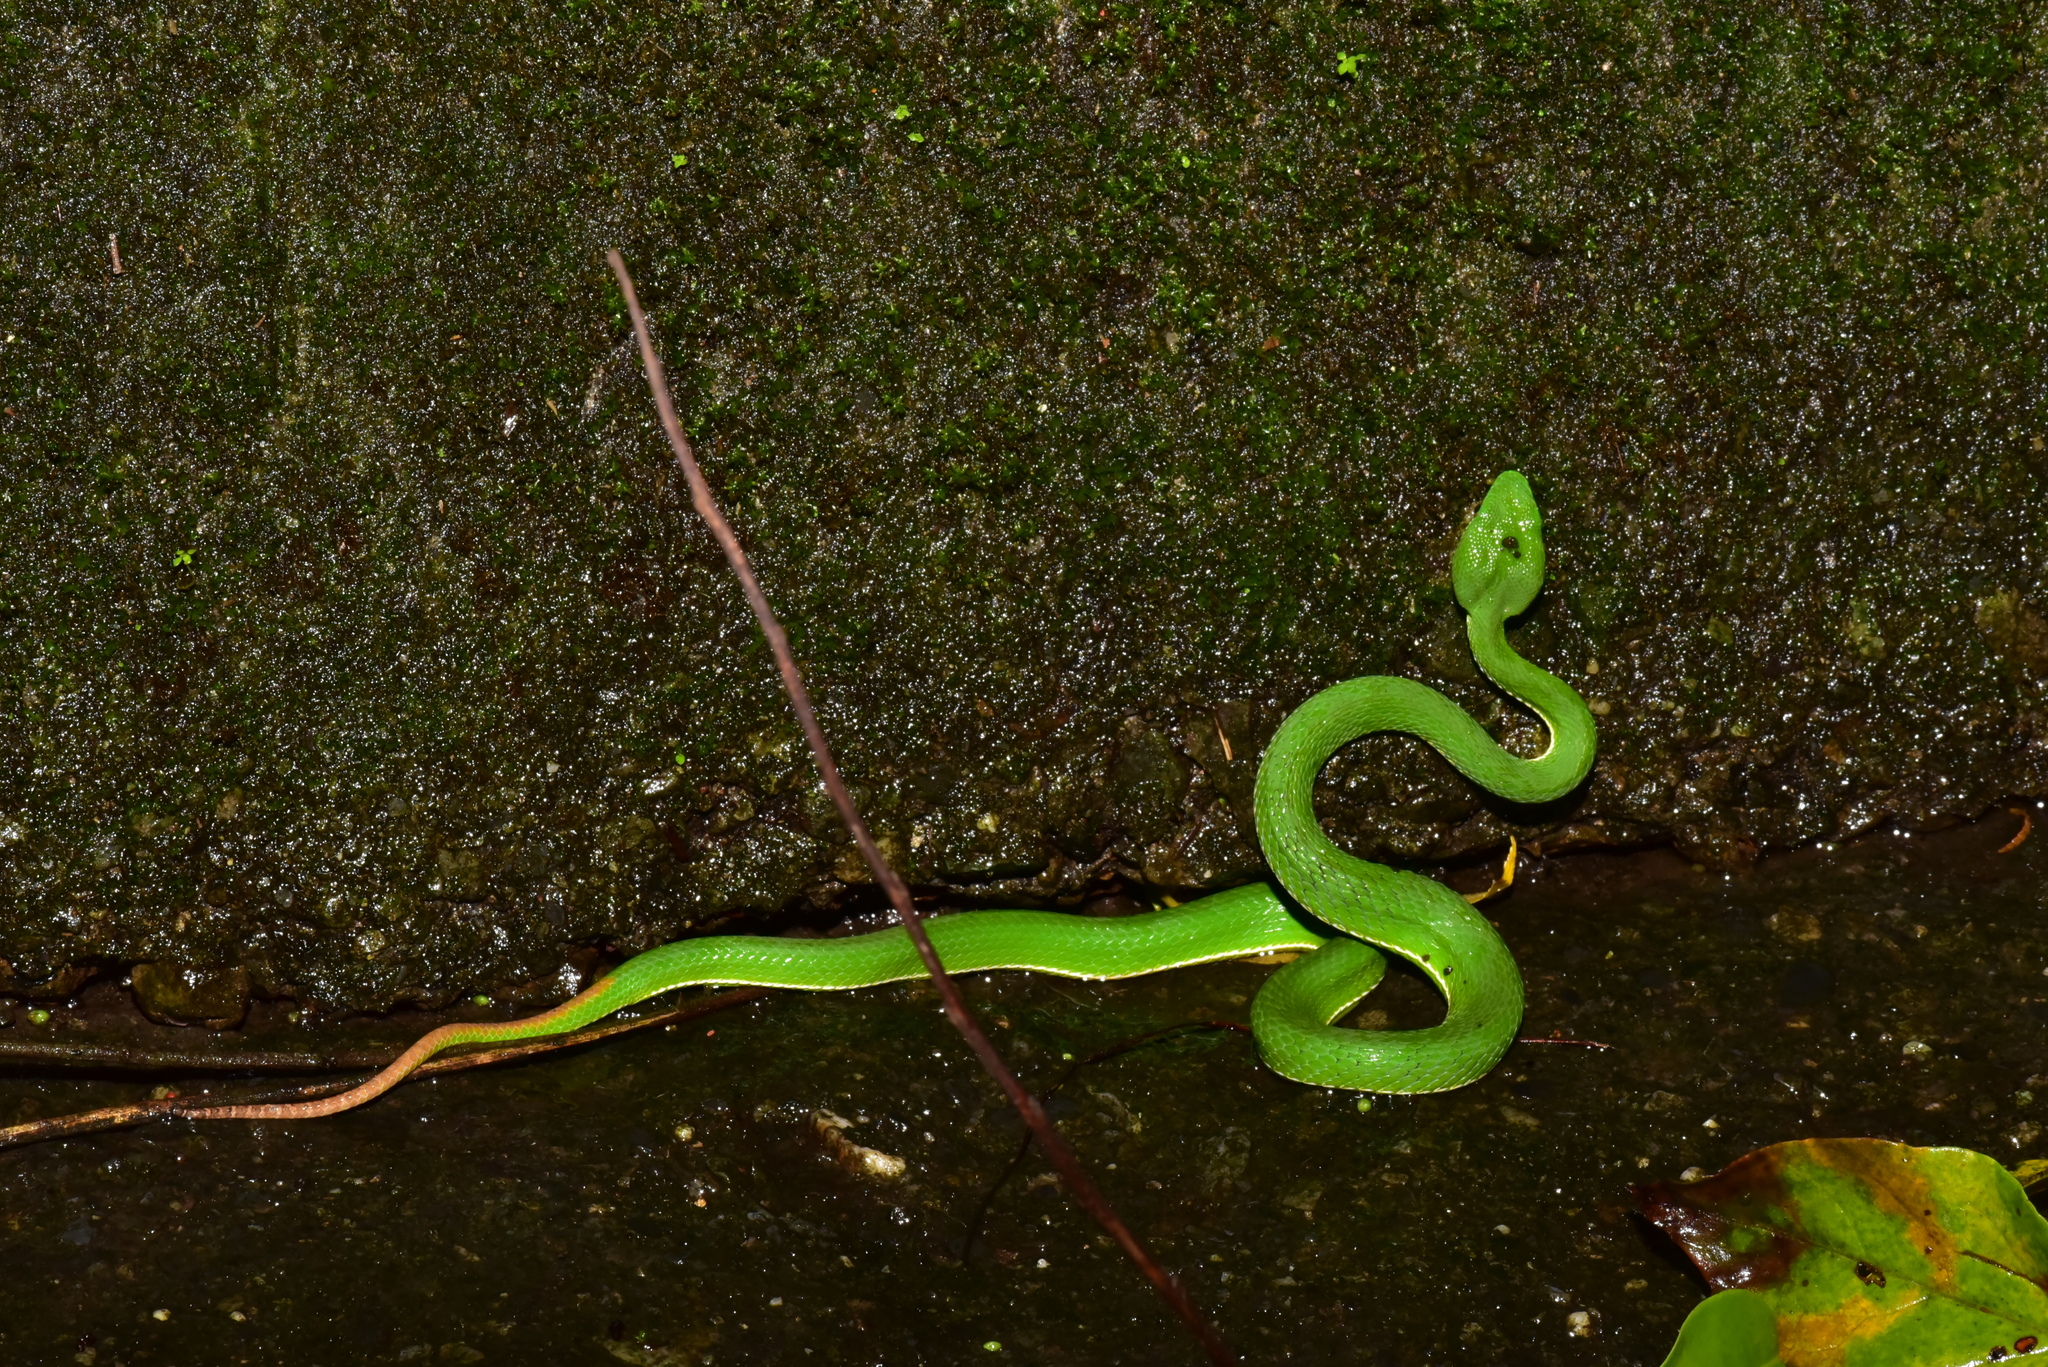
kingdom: Animalia
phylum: Chordata
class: Squamata
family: Viperidae
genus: Trimeresurus
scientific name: Trimeresurus stejnegeri
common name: Chen’s bamboo pit viper
